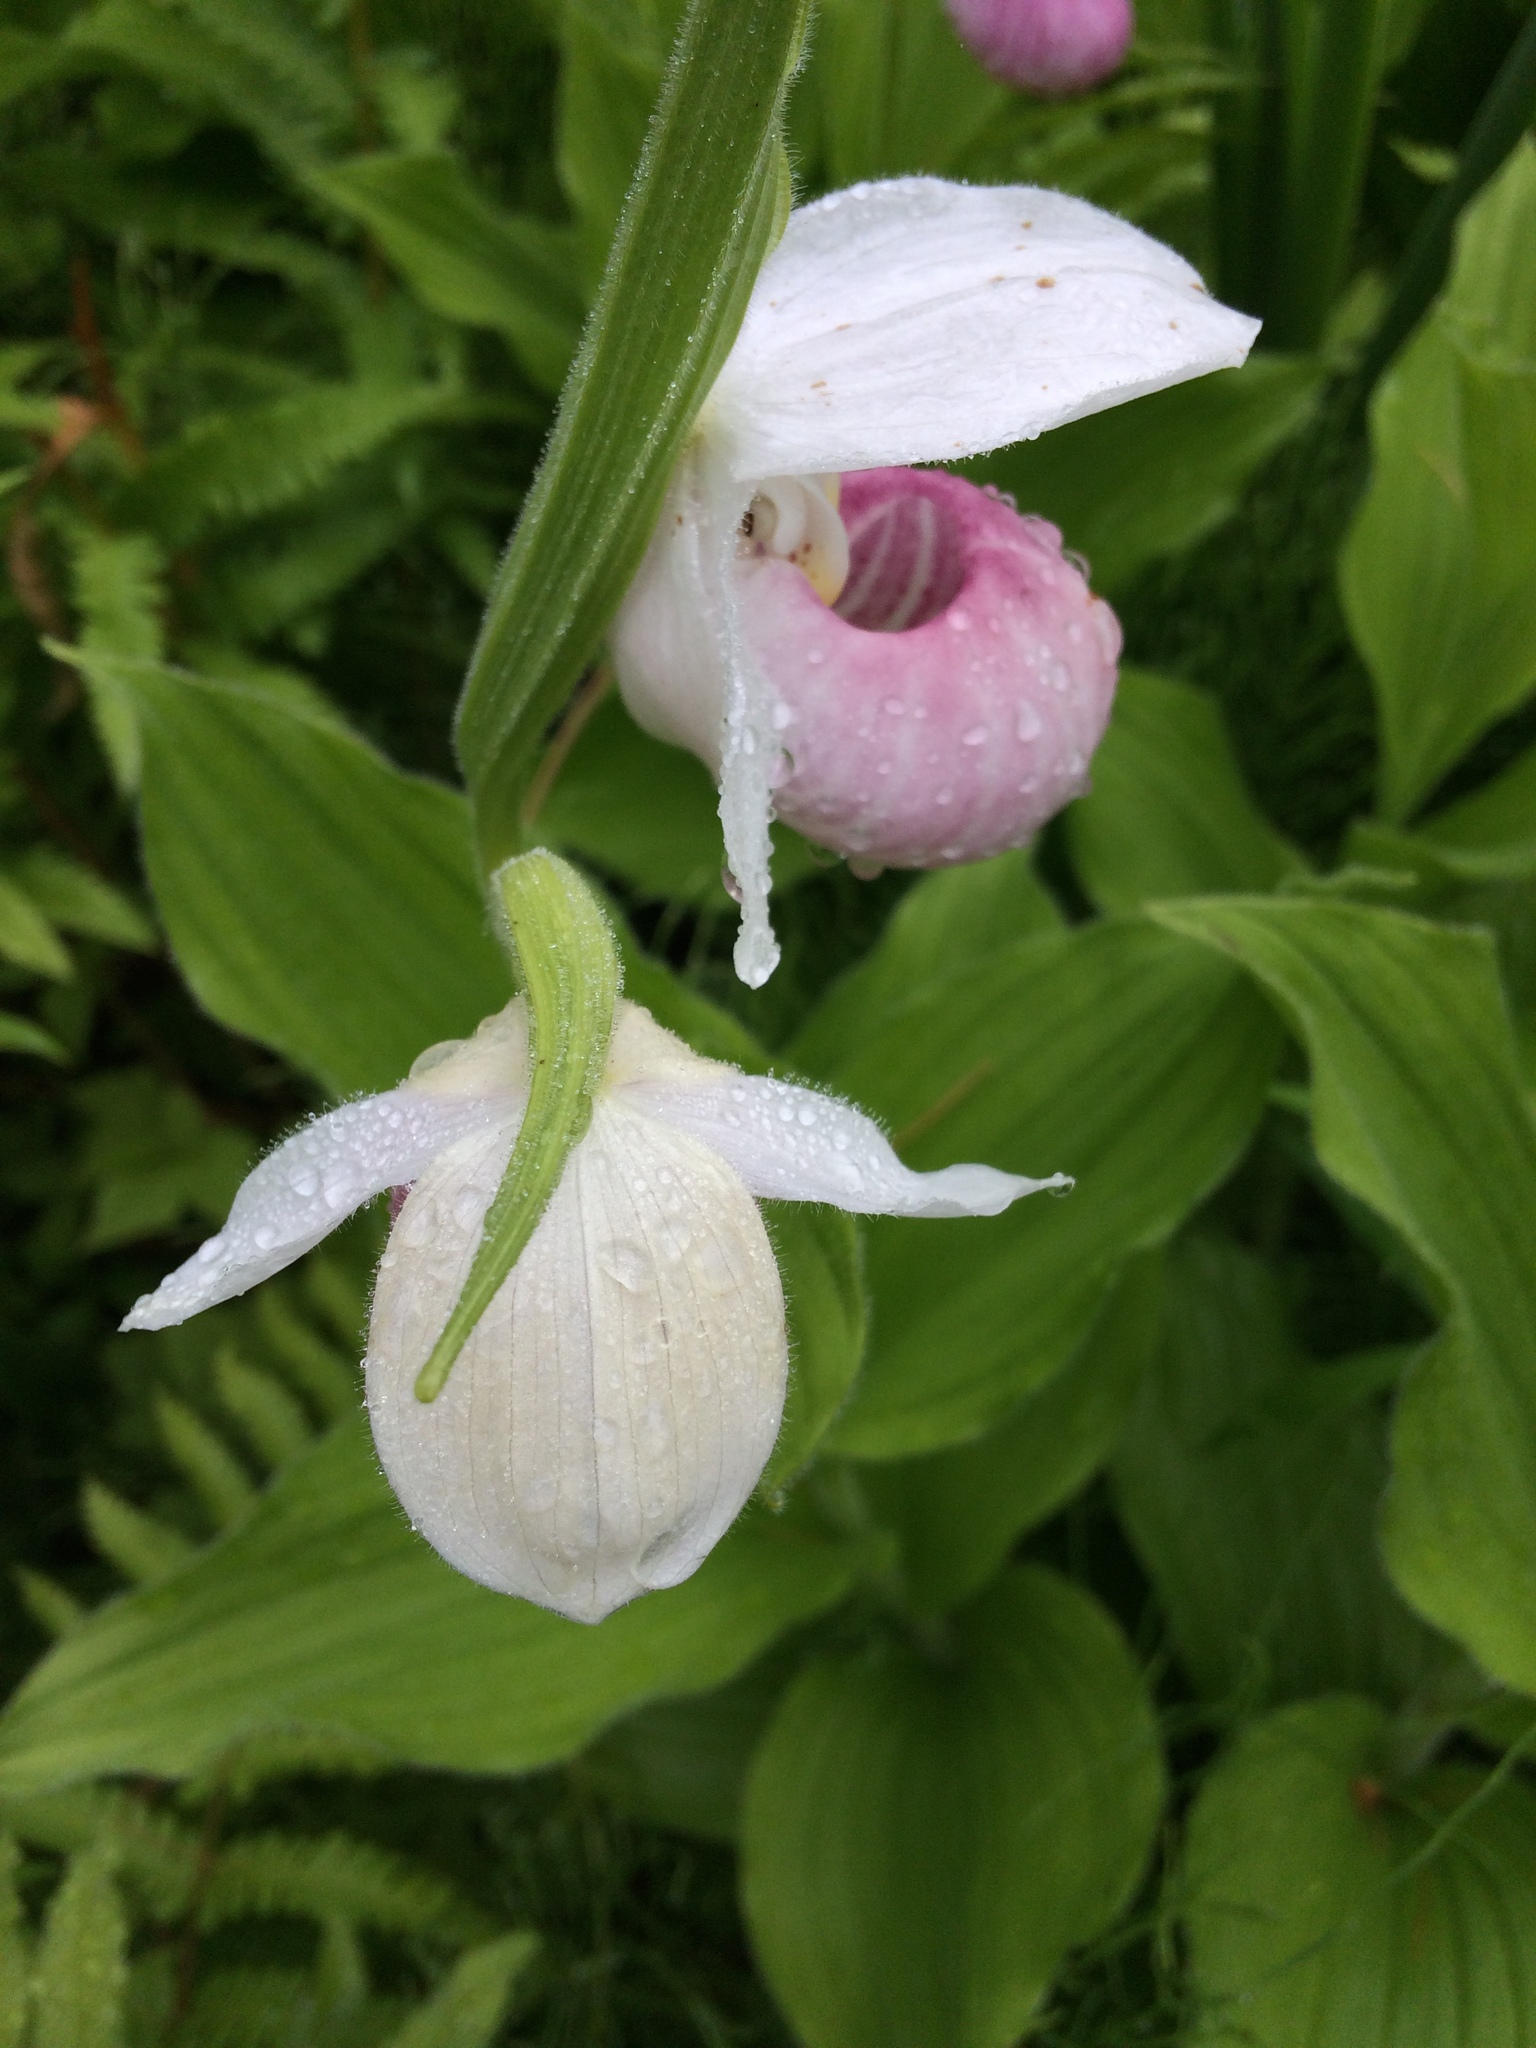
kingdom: Plantae
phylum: Tracheophyta
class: Liliopsida
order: Asparagales
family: Orchidaceae
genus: Cypripedium
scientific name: Cypripedium reginae
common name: Queen lady's-slipper
